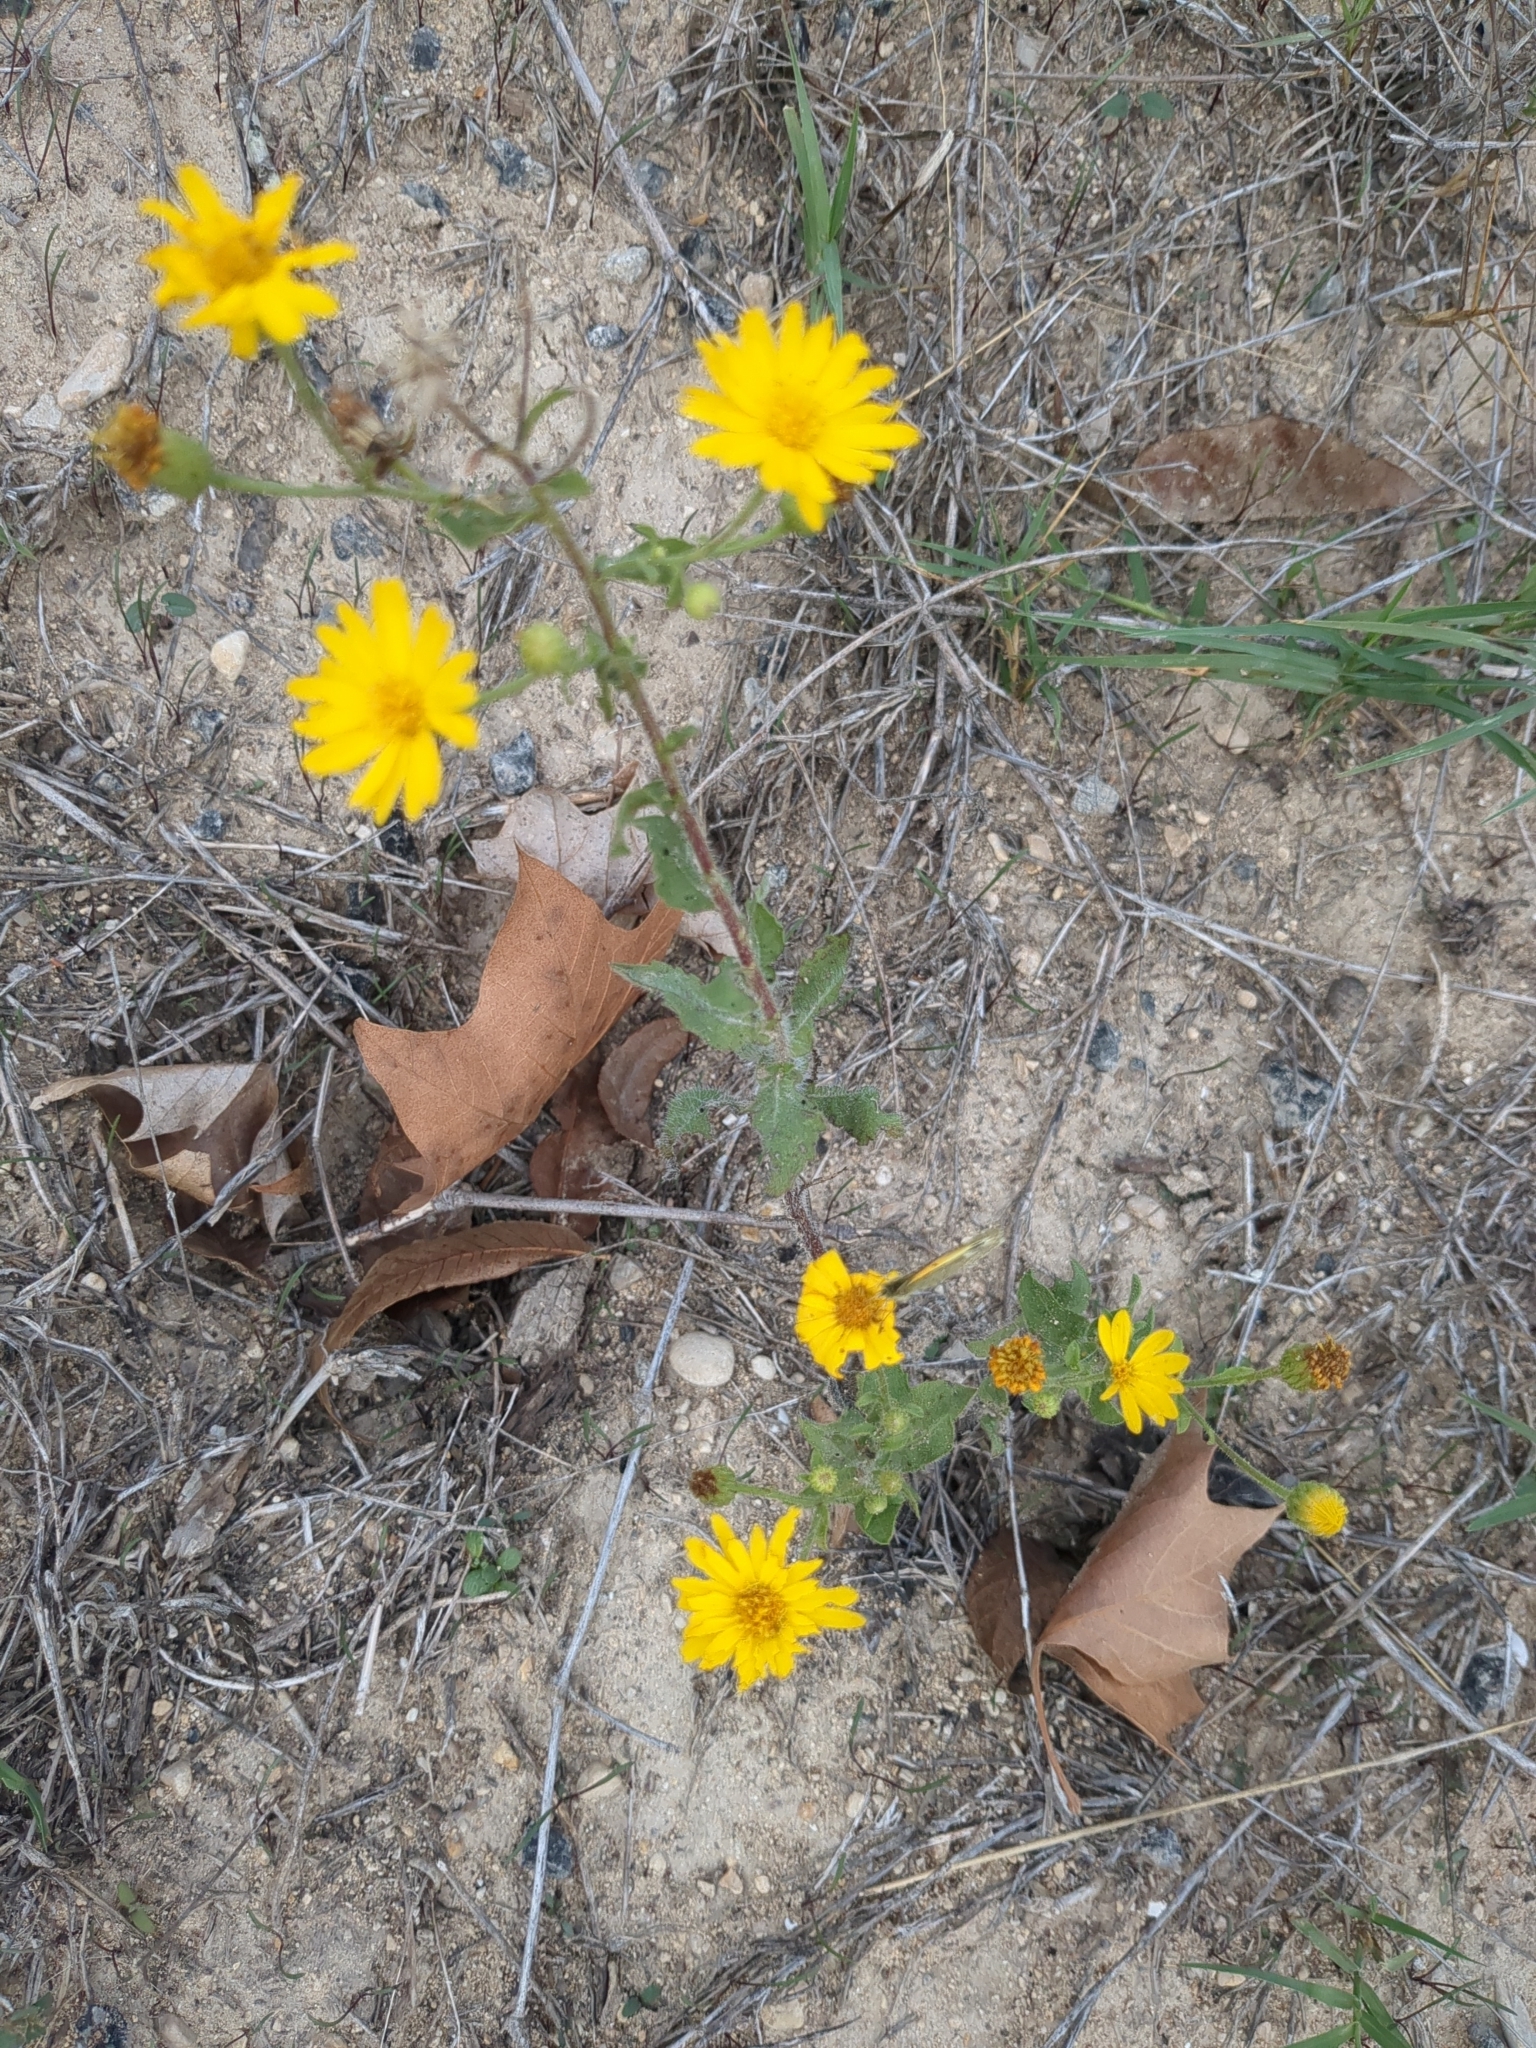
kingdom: Plantae
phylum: Tracheophyta
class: Magnoliopsida
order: Asterales
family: Asteraceae
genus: Heterotheca
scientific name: Heterotheca subaxillaris
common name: Camphorweed
